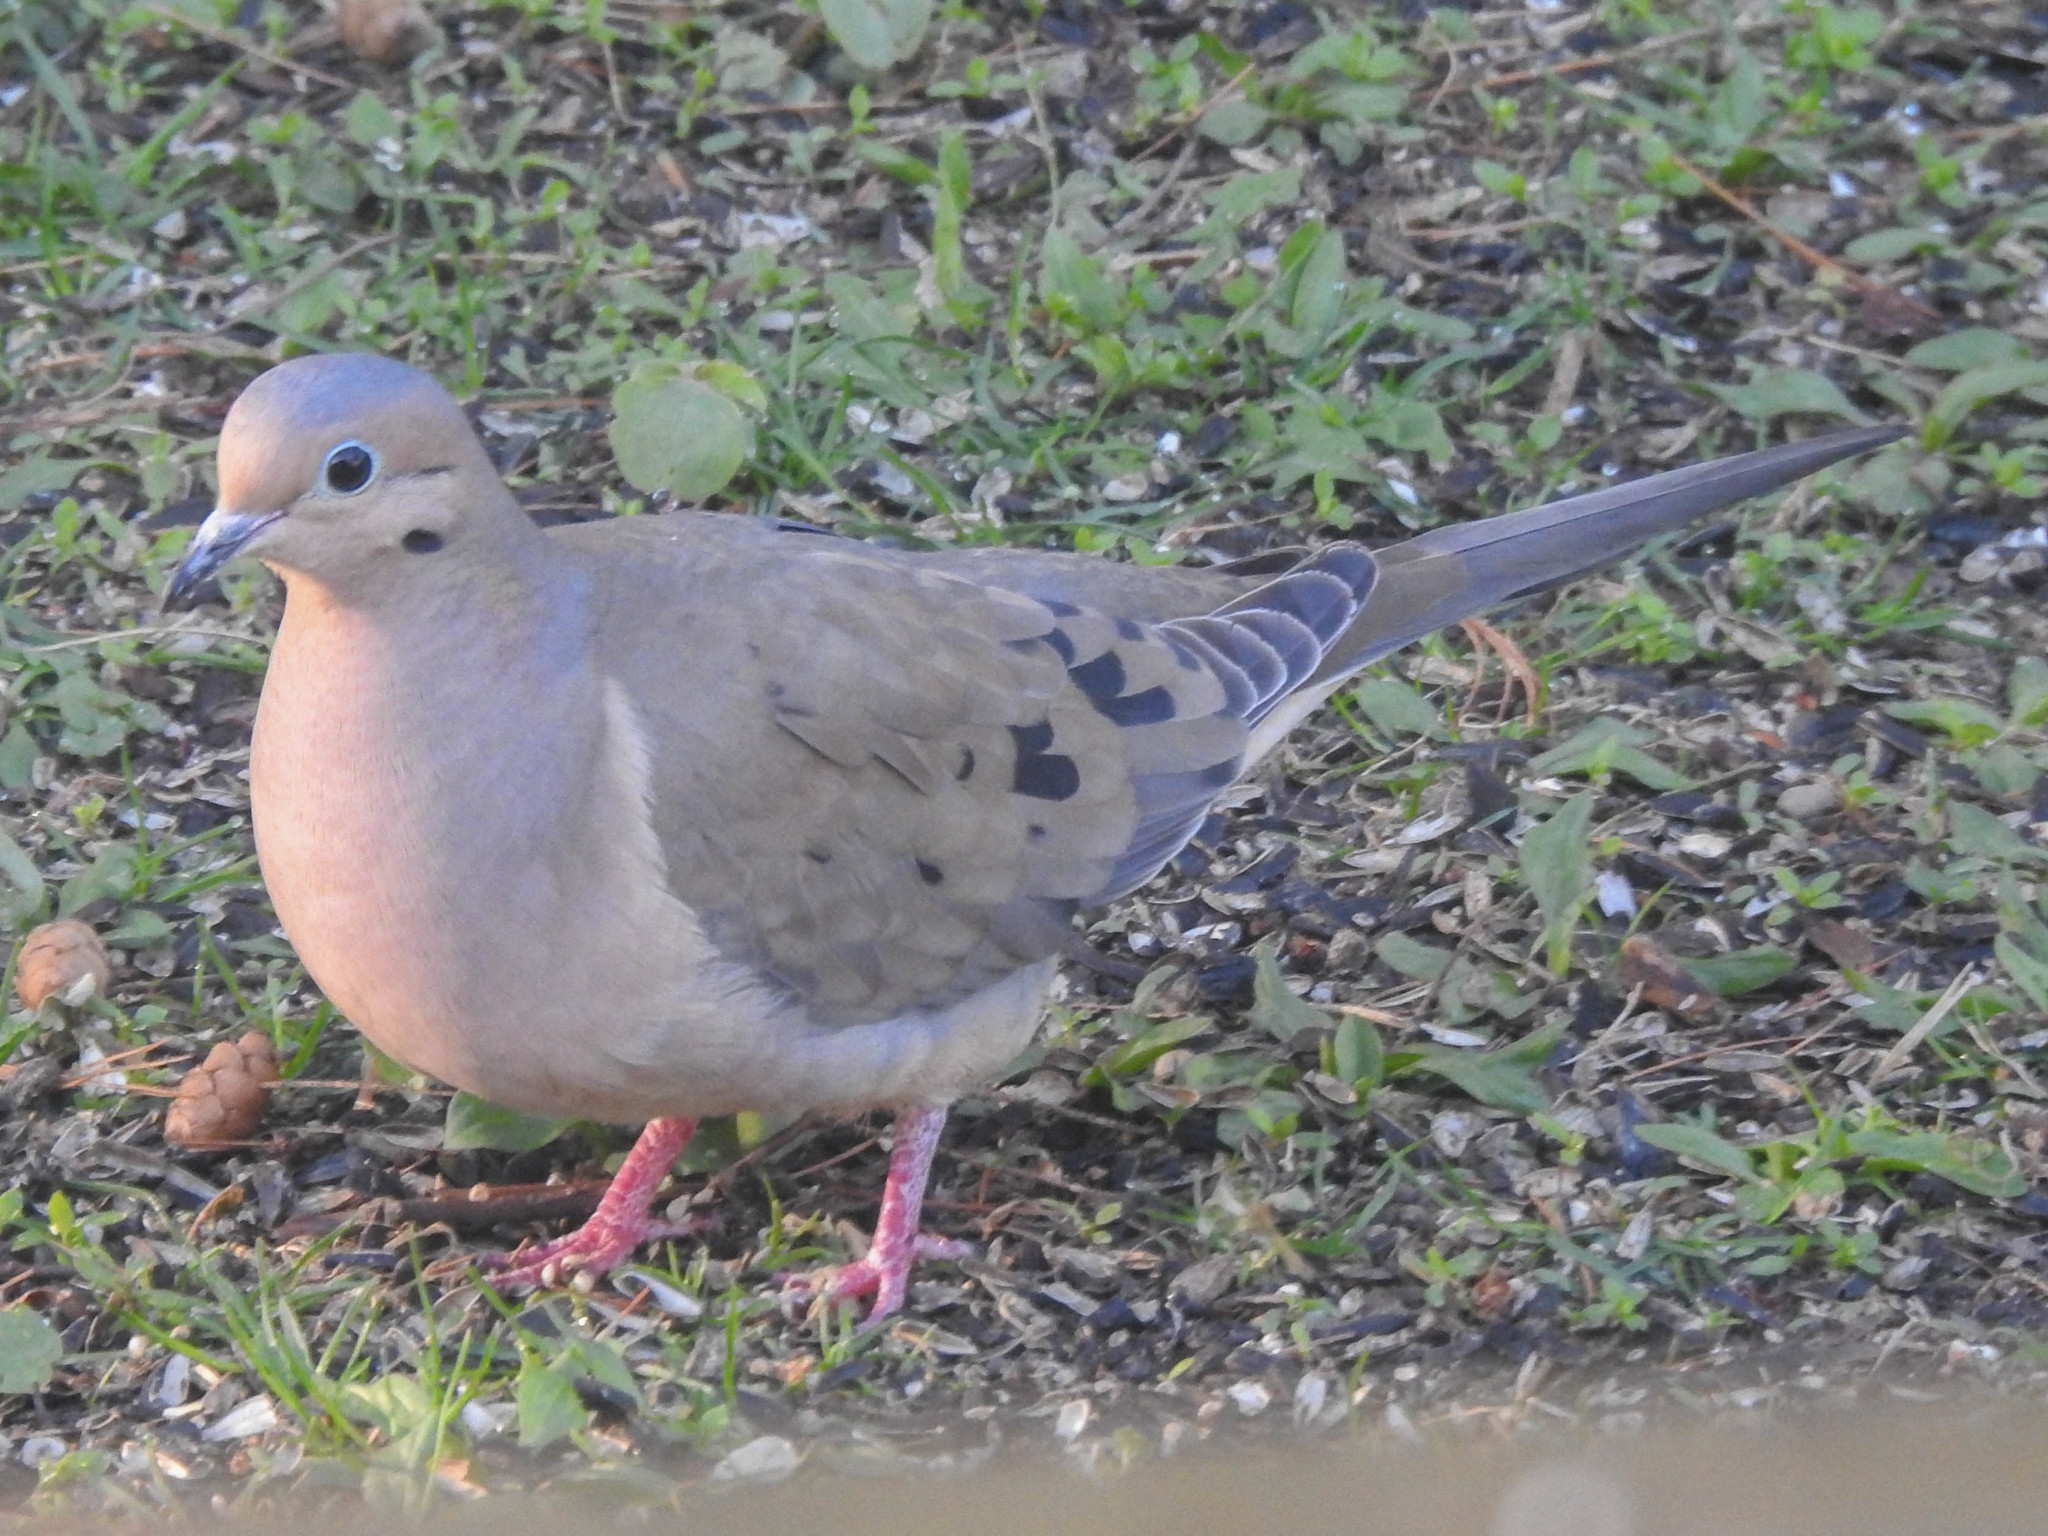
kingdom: Animalia
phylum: Chordata
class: Aves
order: Columbiformes
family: Columbidae
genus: Zenaida
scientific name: Zenaida macroura
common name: Mourning dove
